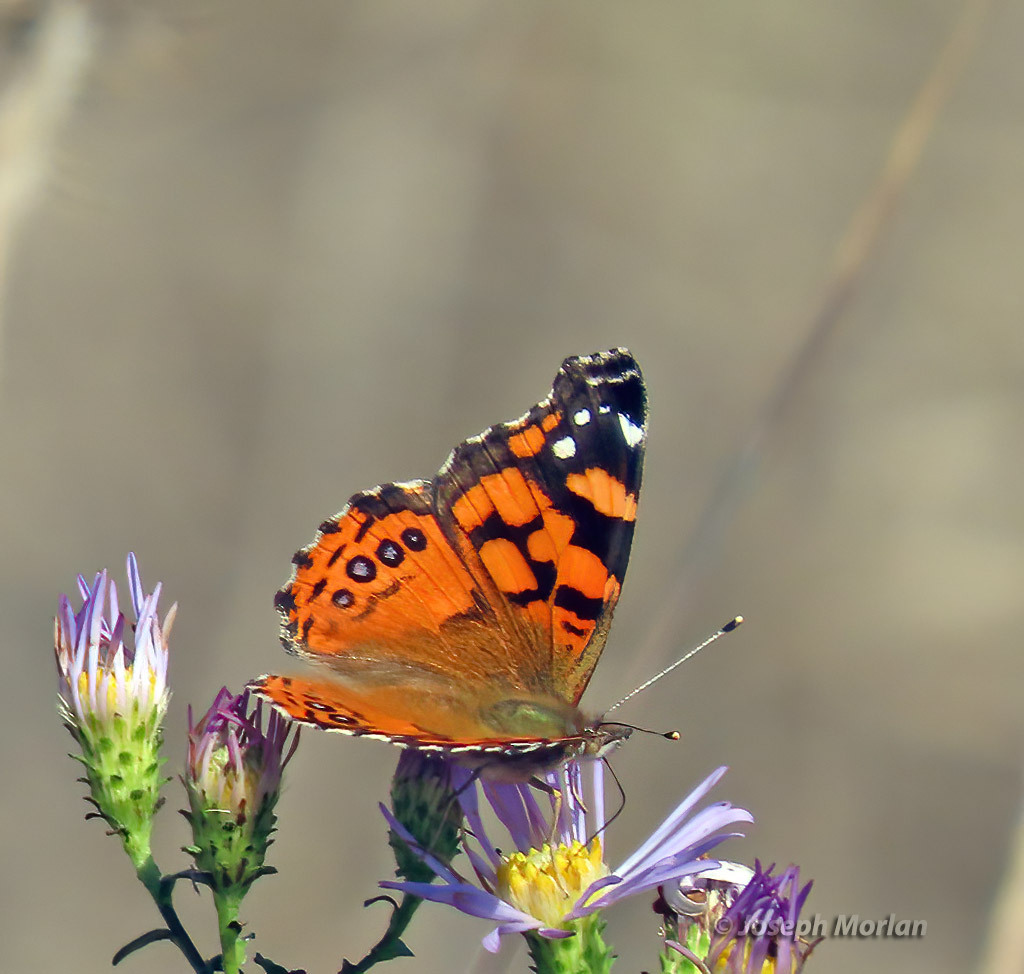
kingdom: Animalia
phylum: Arthropoda
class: Insecta
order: Lepidoptera
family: Nymphalidae
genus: Vanessa
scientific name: Vanessa annabella
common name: West coast lady
